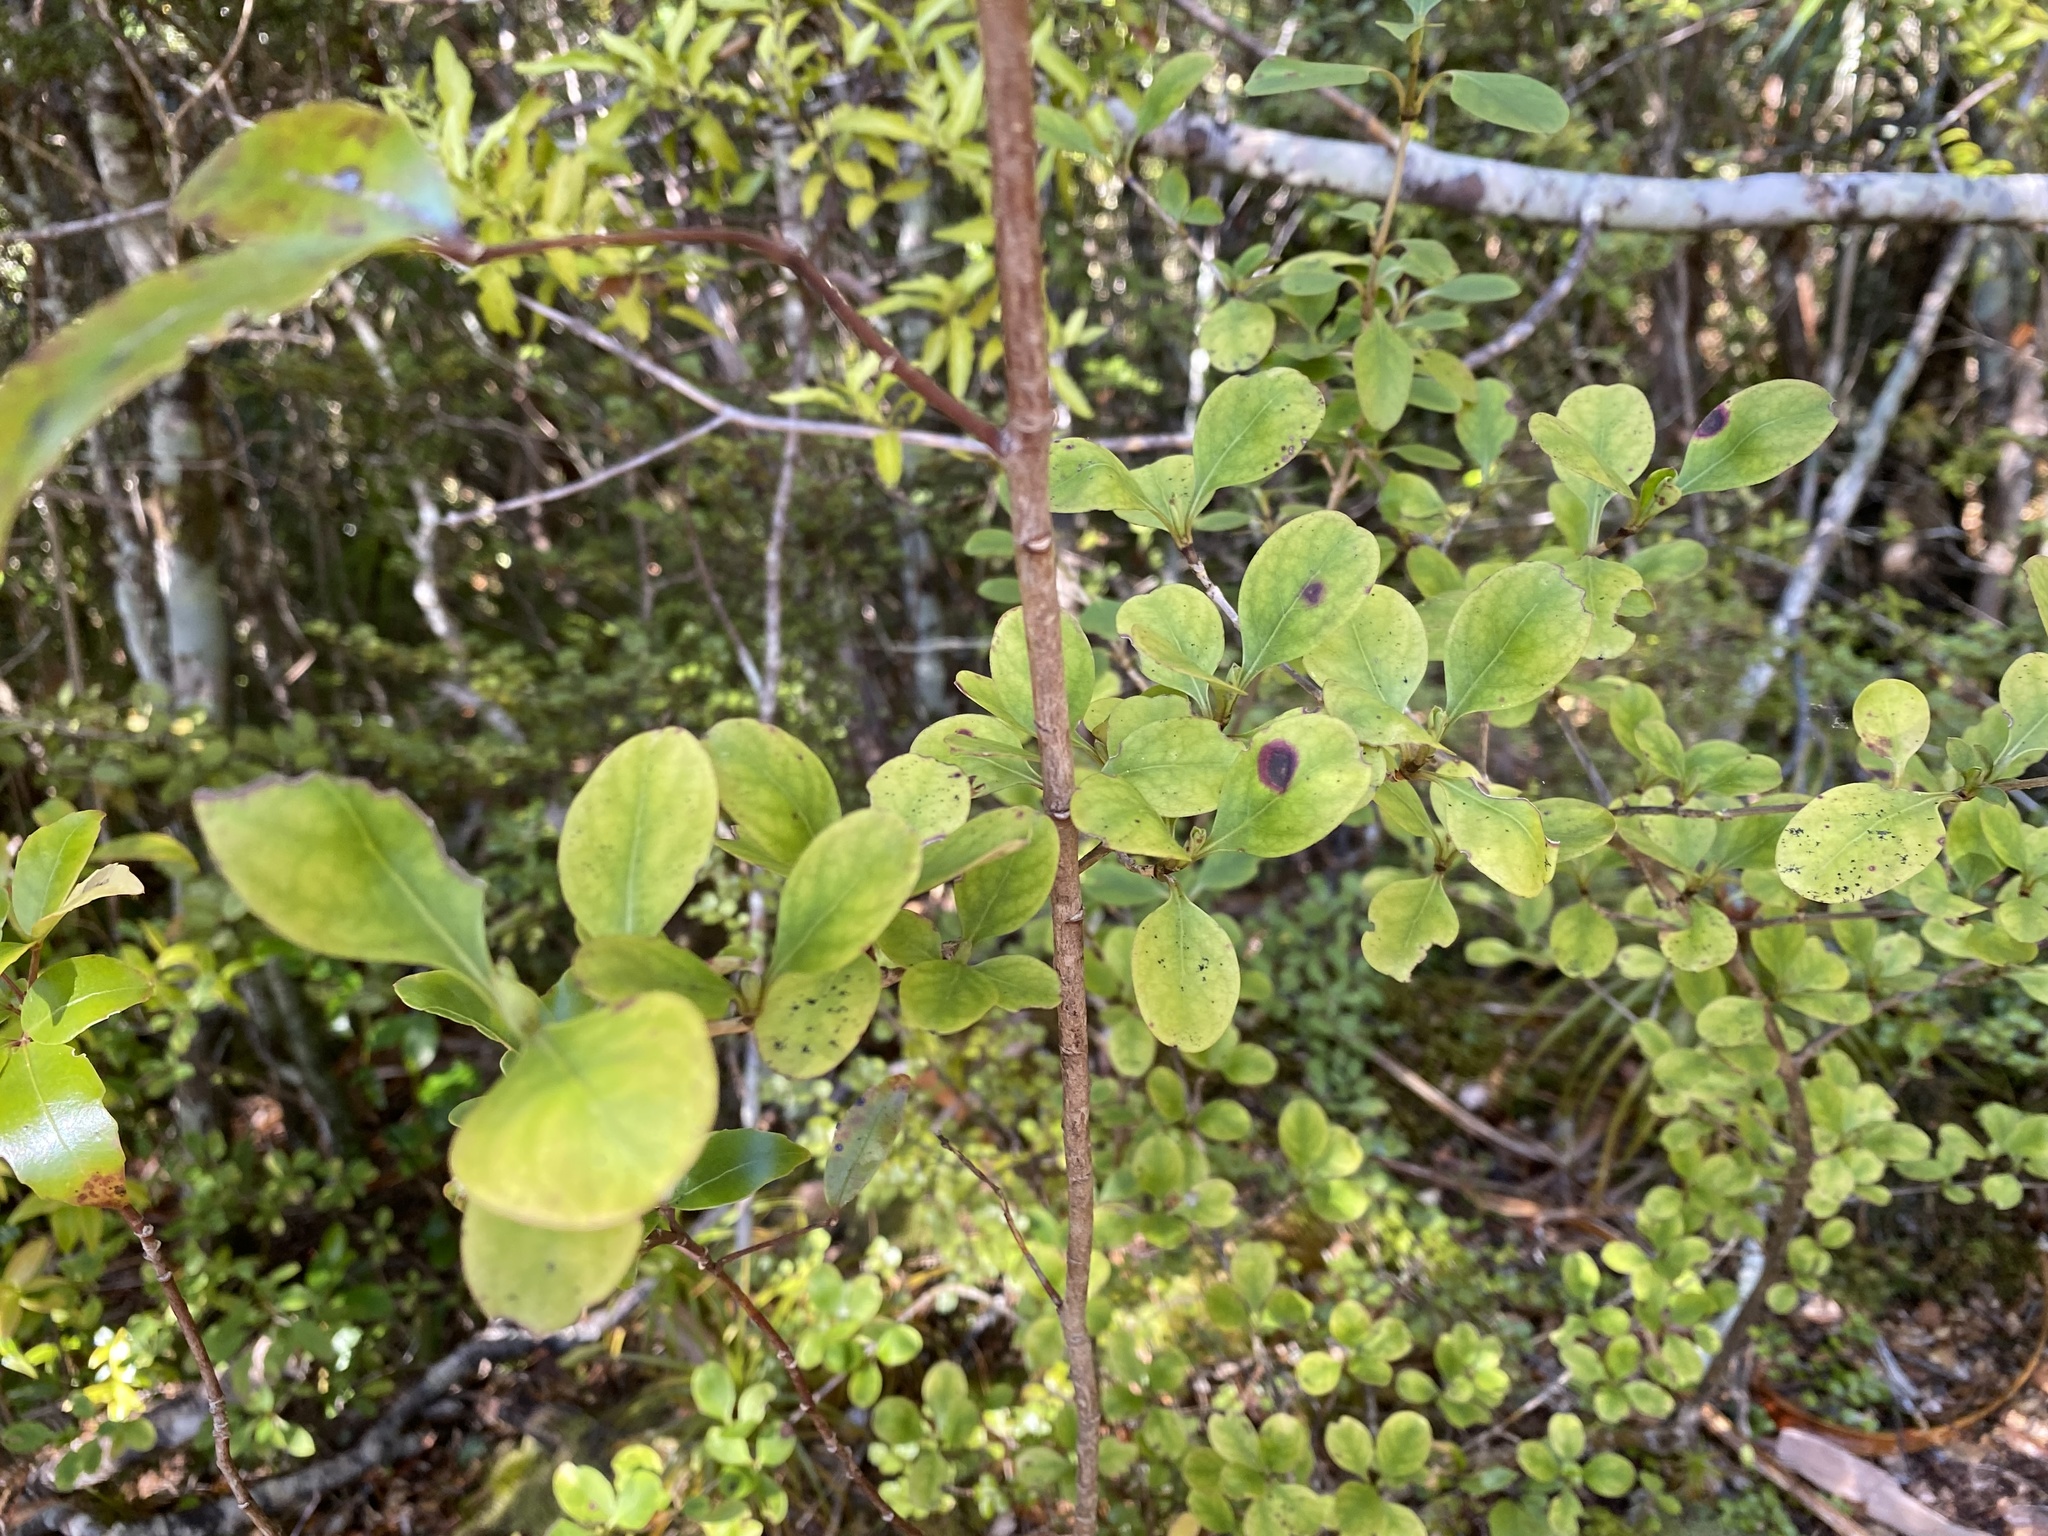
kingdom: Plantae
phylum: Tracheophyta
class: Magnoliopsida
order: Gentianales
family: Rubiaceae
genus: Coprosma
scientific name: Coprosma foetidissima
